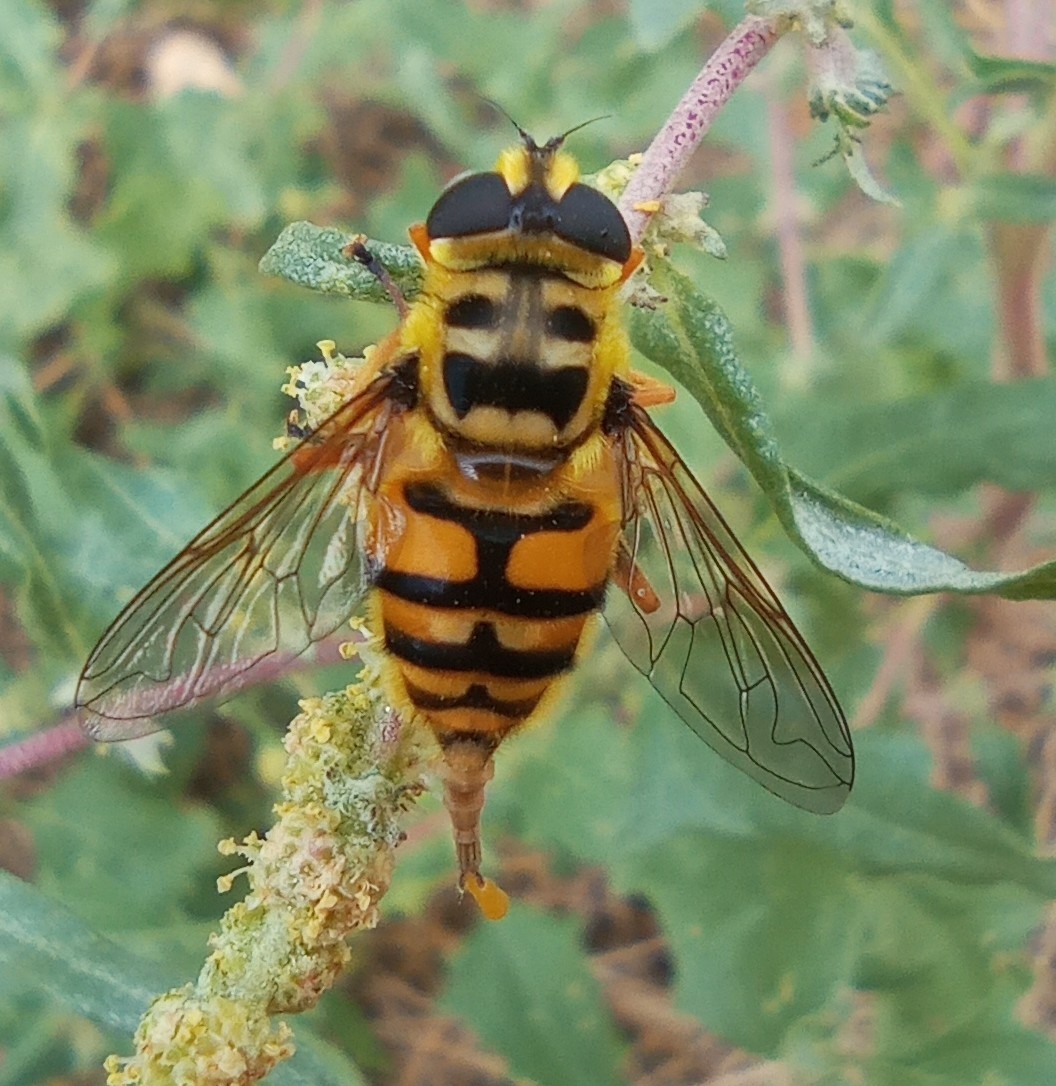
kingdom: Animalia
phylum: Arthropoda
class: Insecta
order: Diptera
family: Syrphidae
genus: Myathropa
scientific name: Myathropa florea
